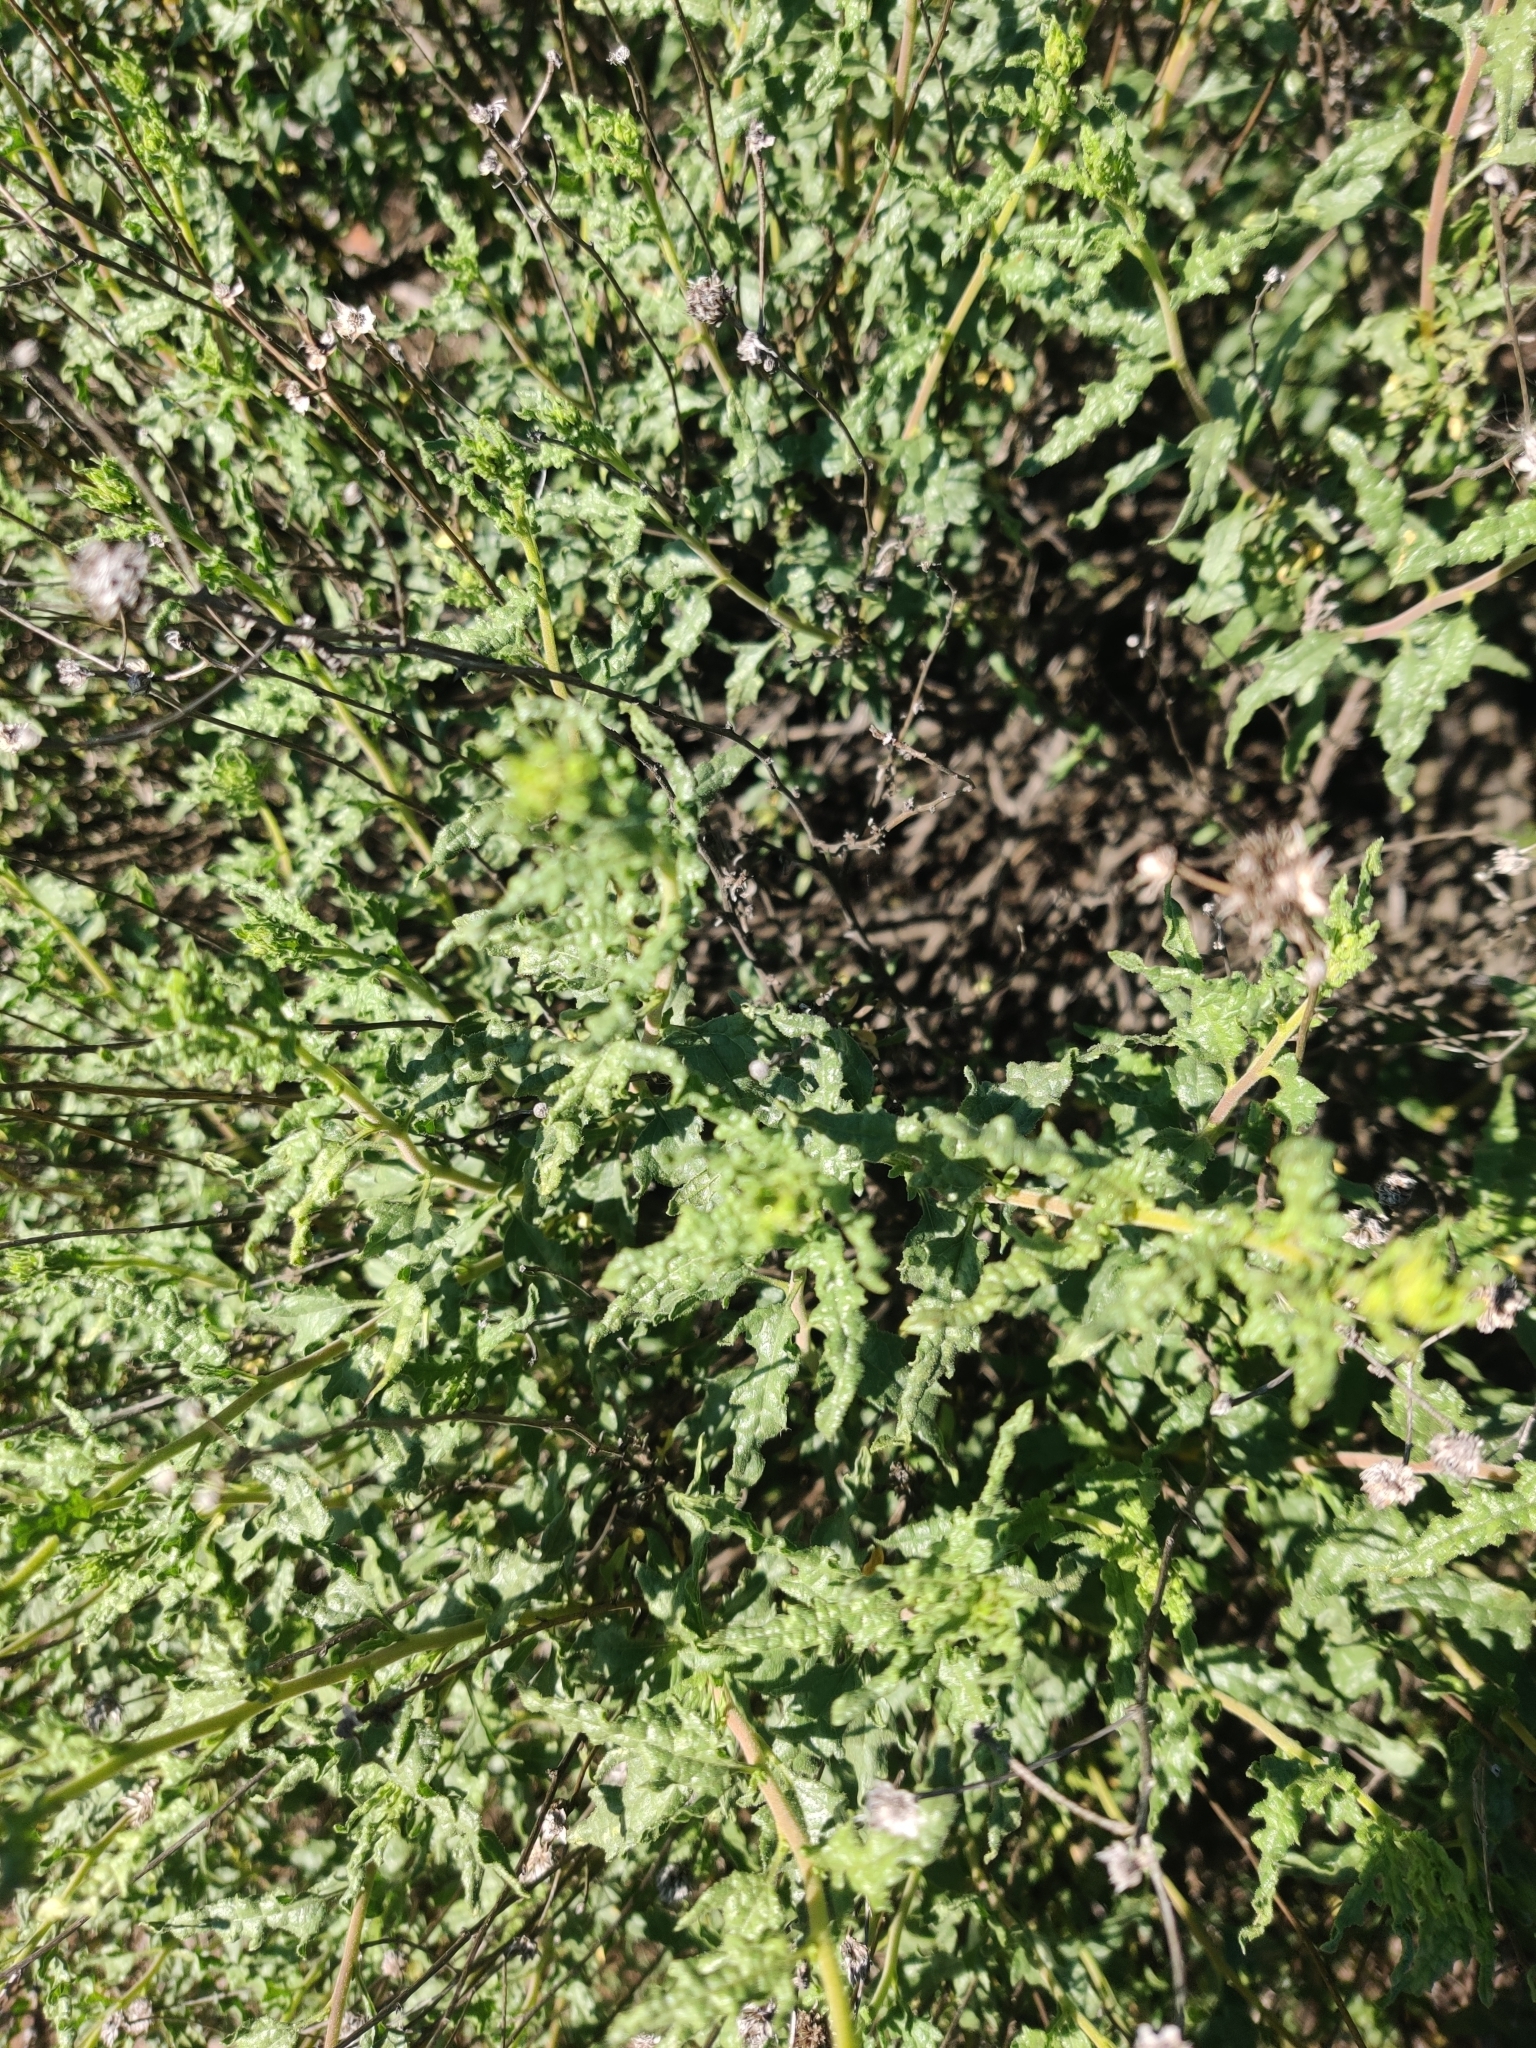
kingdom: Plantae
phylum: Tracheophyta
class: Magnoliopsida
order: Asterales
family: Asteraceae
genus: Bahiopsis
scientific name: Bahiopsis laciniata
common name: San diego county viguiera
